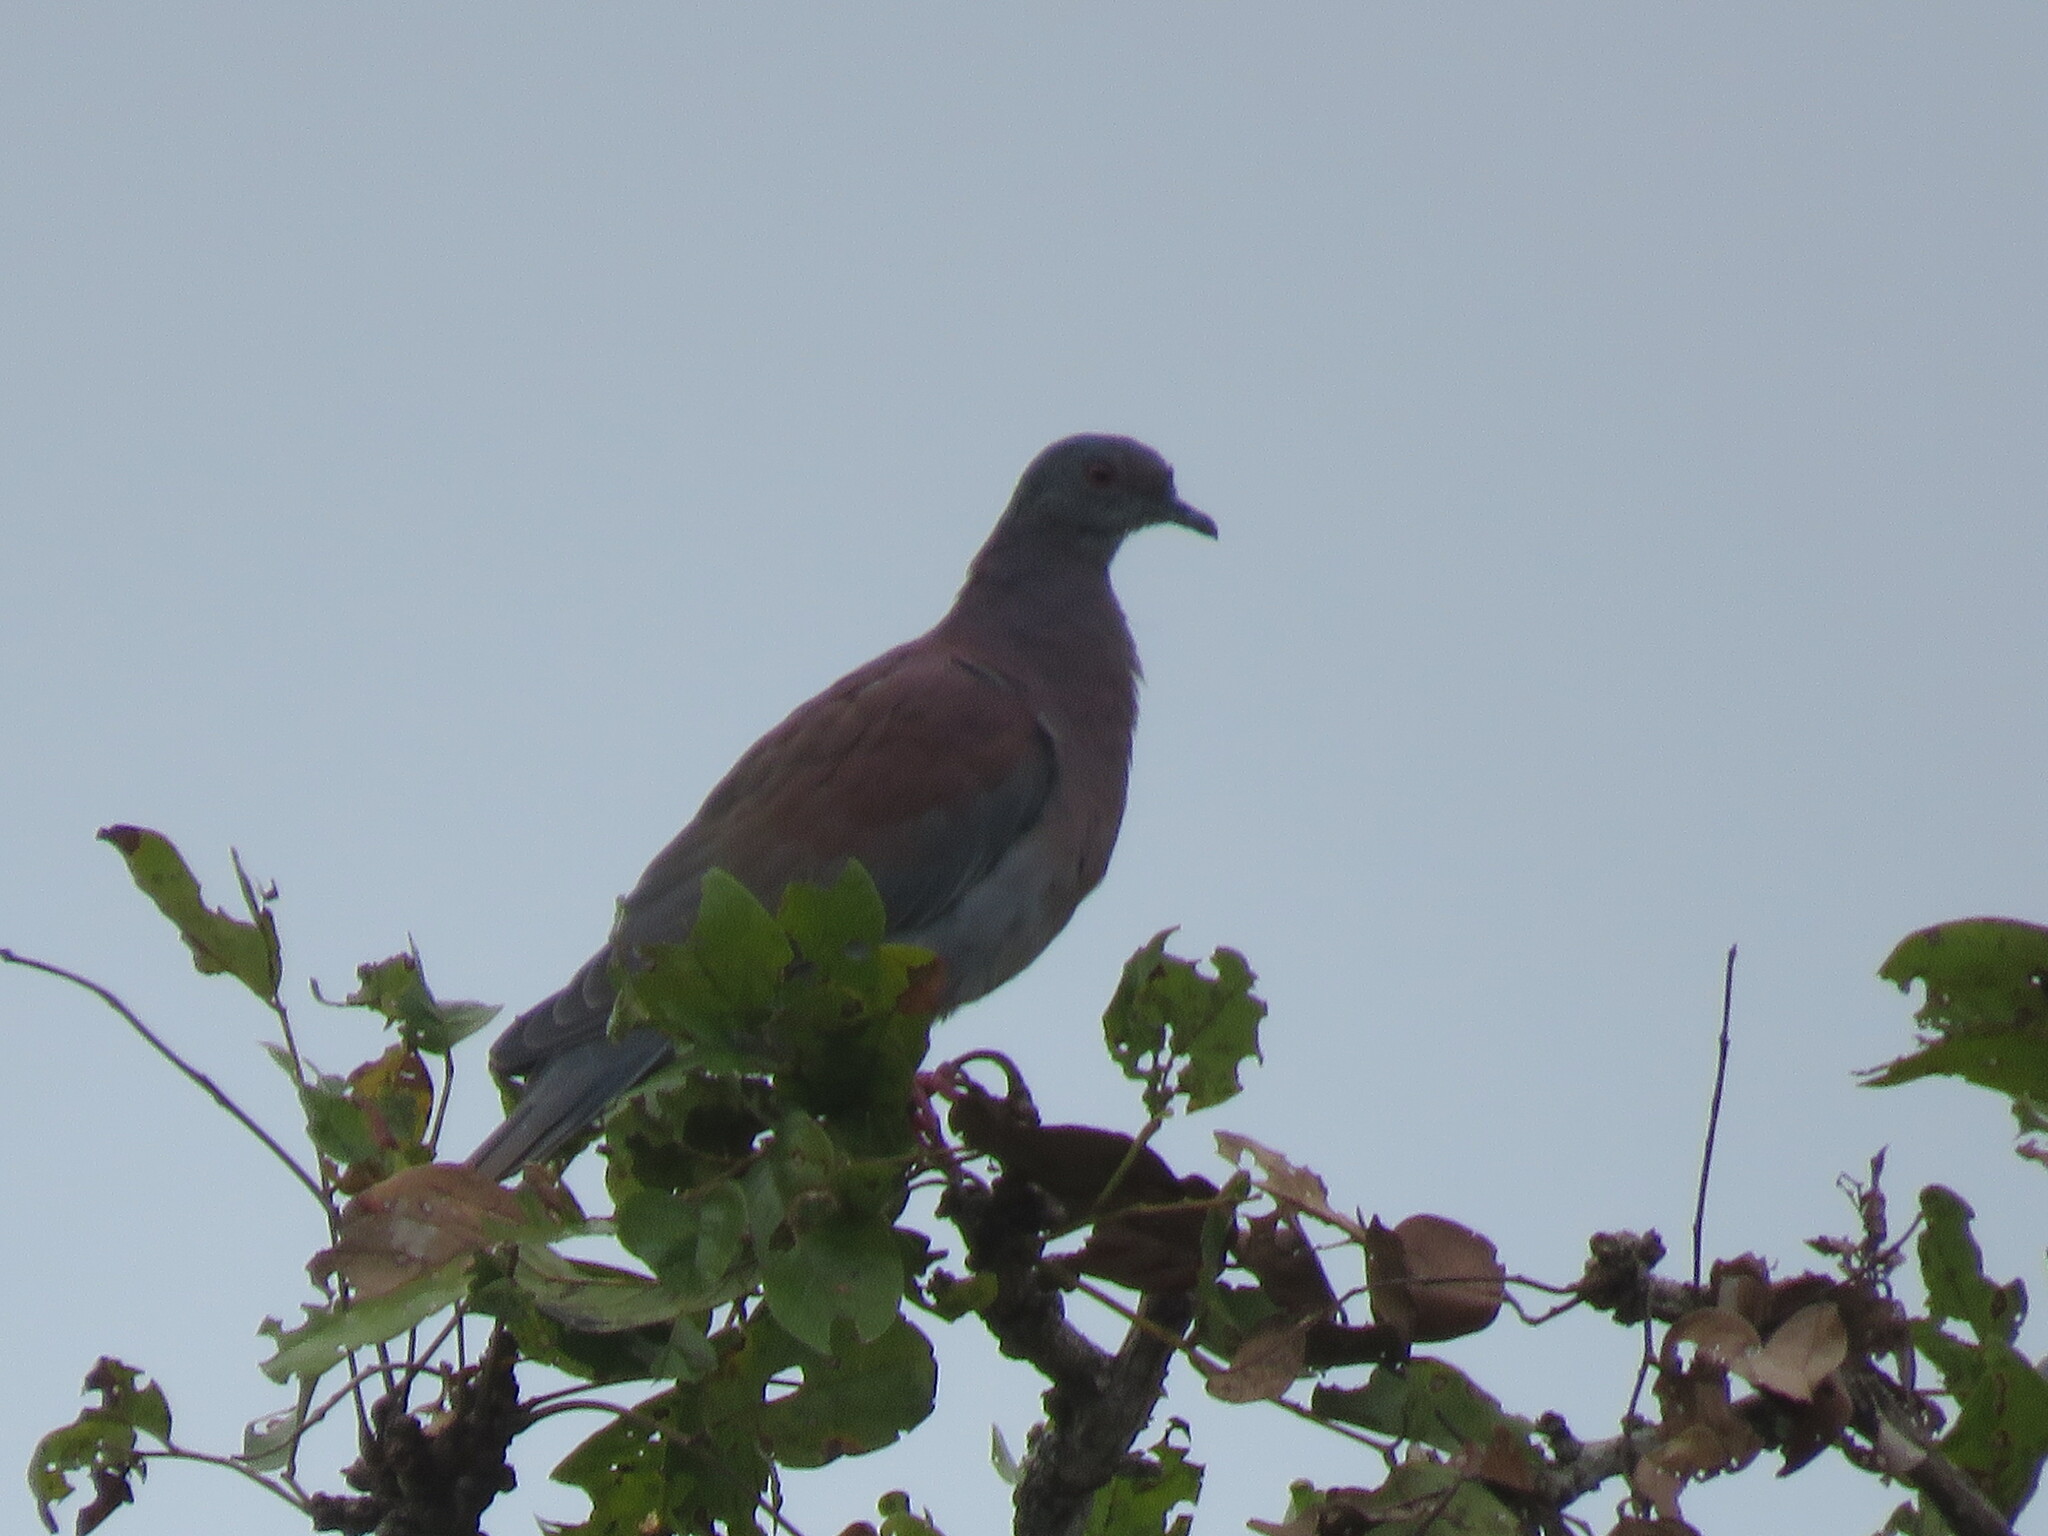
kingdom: Animalia
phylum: Chordata
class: Aves
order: Columbiformes
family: Columbidae
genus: Patagioenas
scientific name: Patagioenas cayennensis
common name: Pale-vented pigeon
